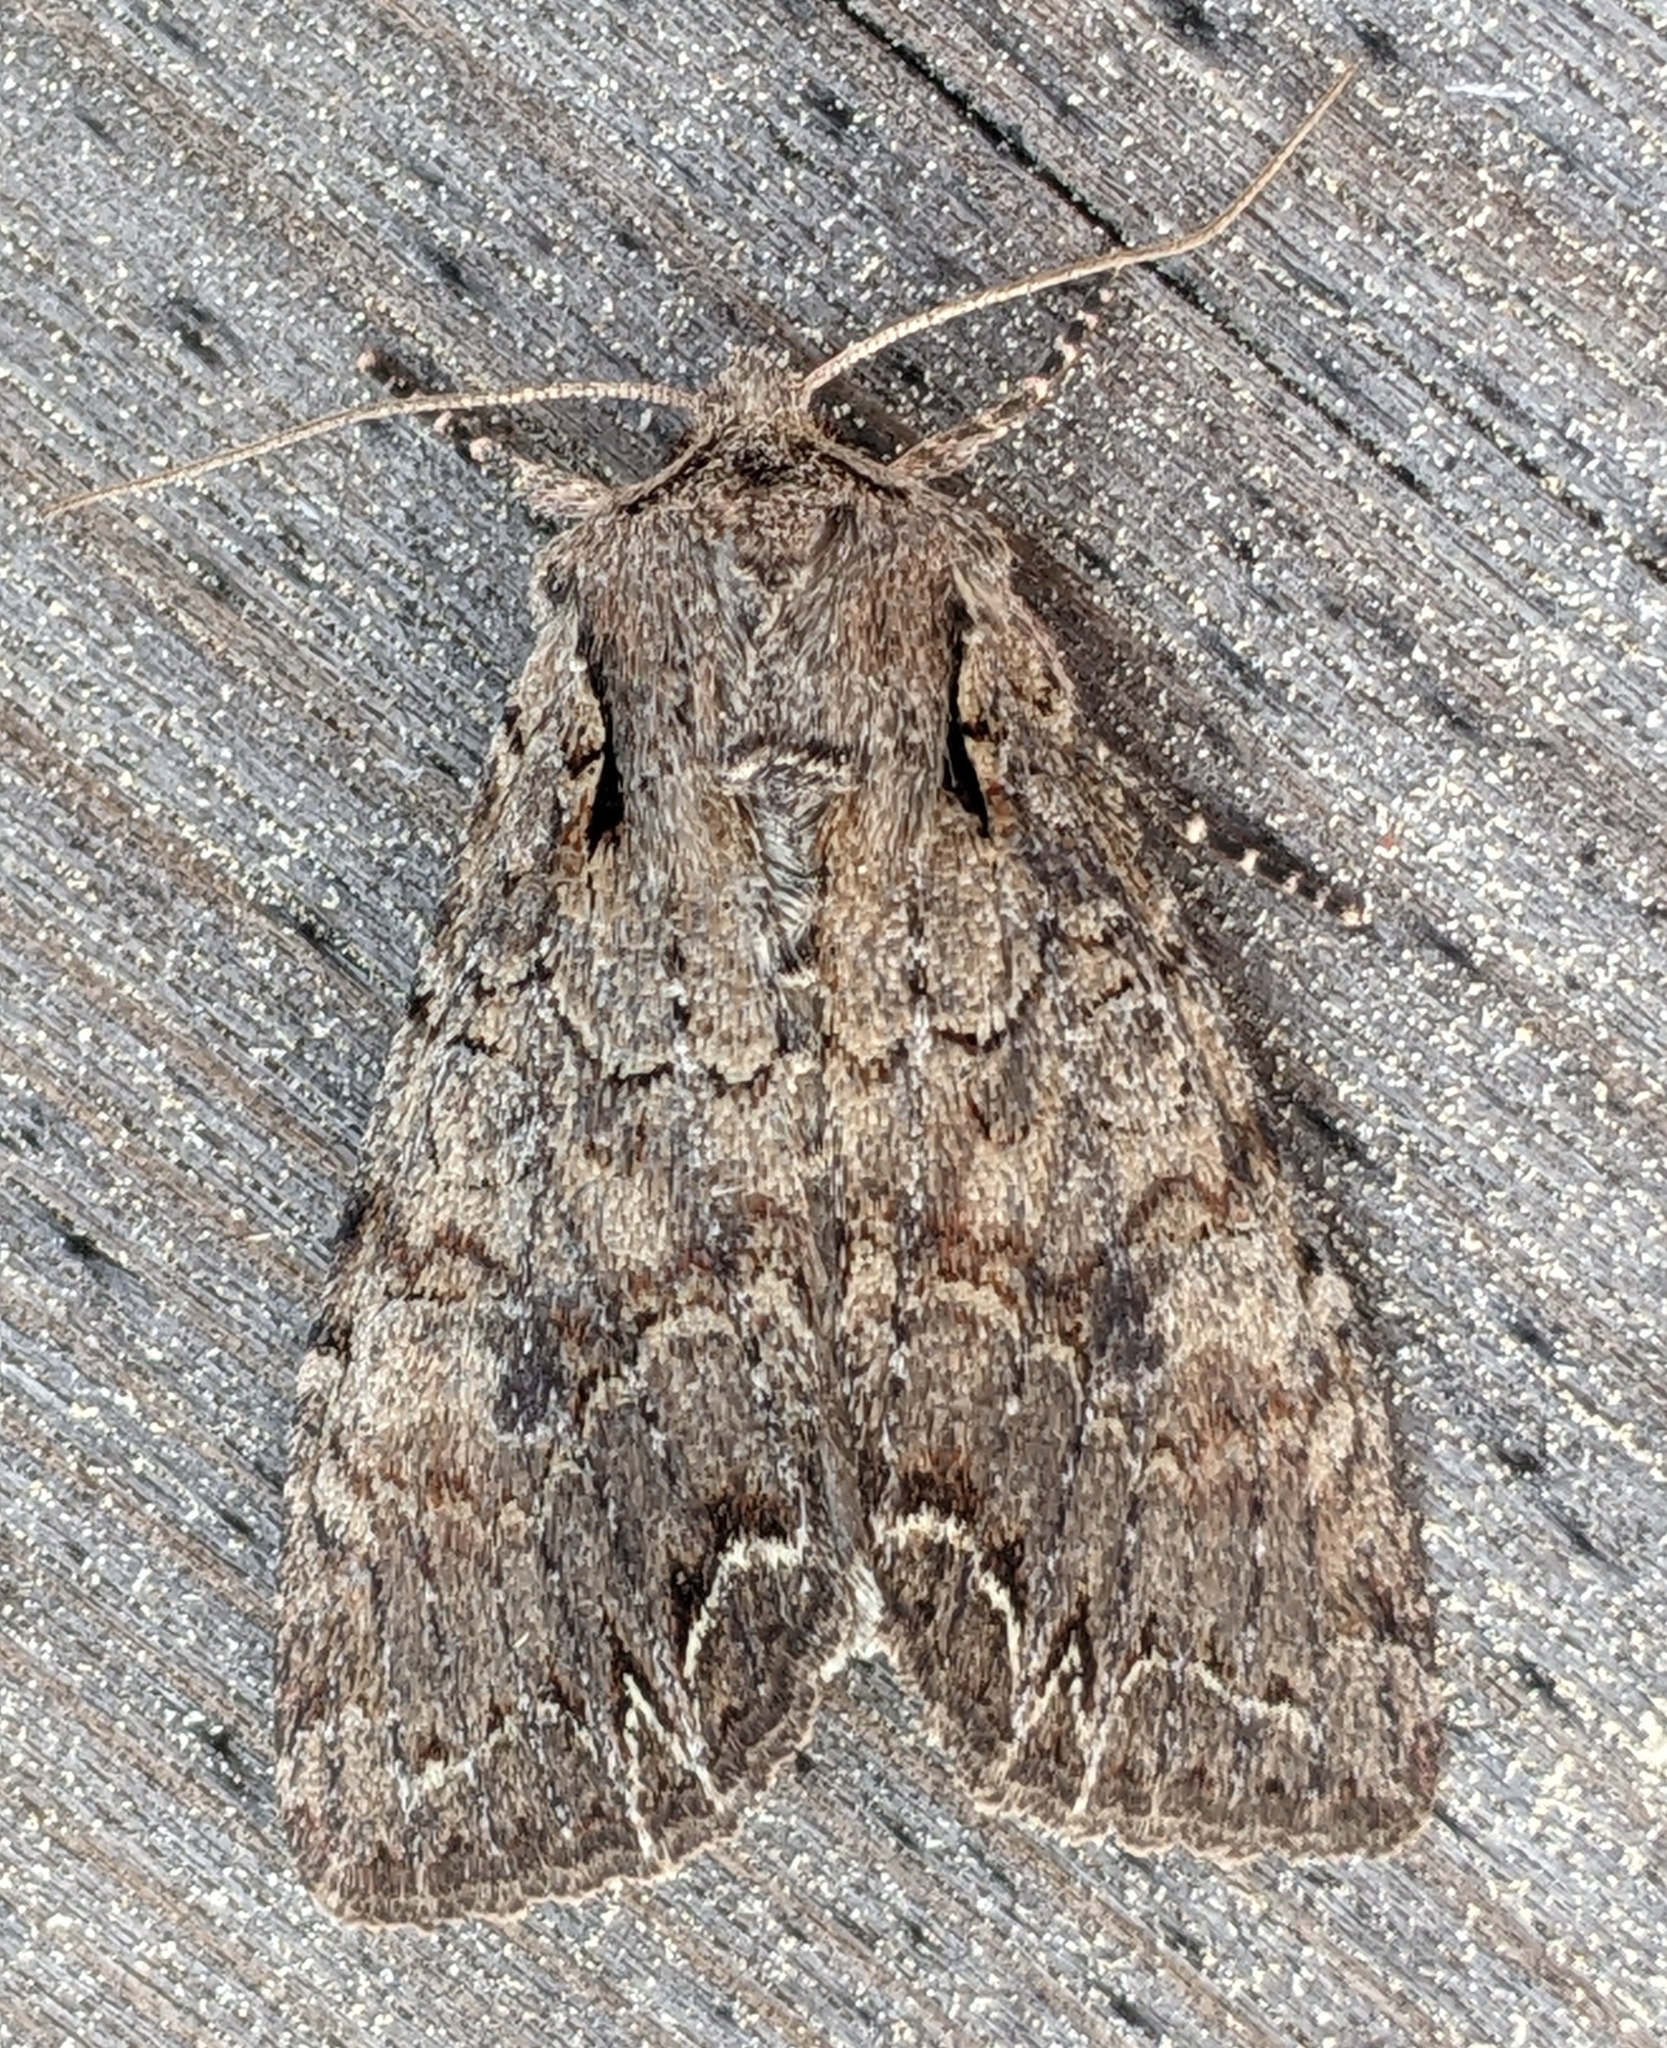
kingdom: Animalia
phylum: Arthropoda
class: Insecta
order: Lepidoptera
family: Noctuidae
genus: Lacanobia
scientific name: Lacanobia radix
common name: Garden arches moth
